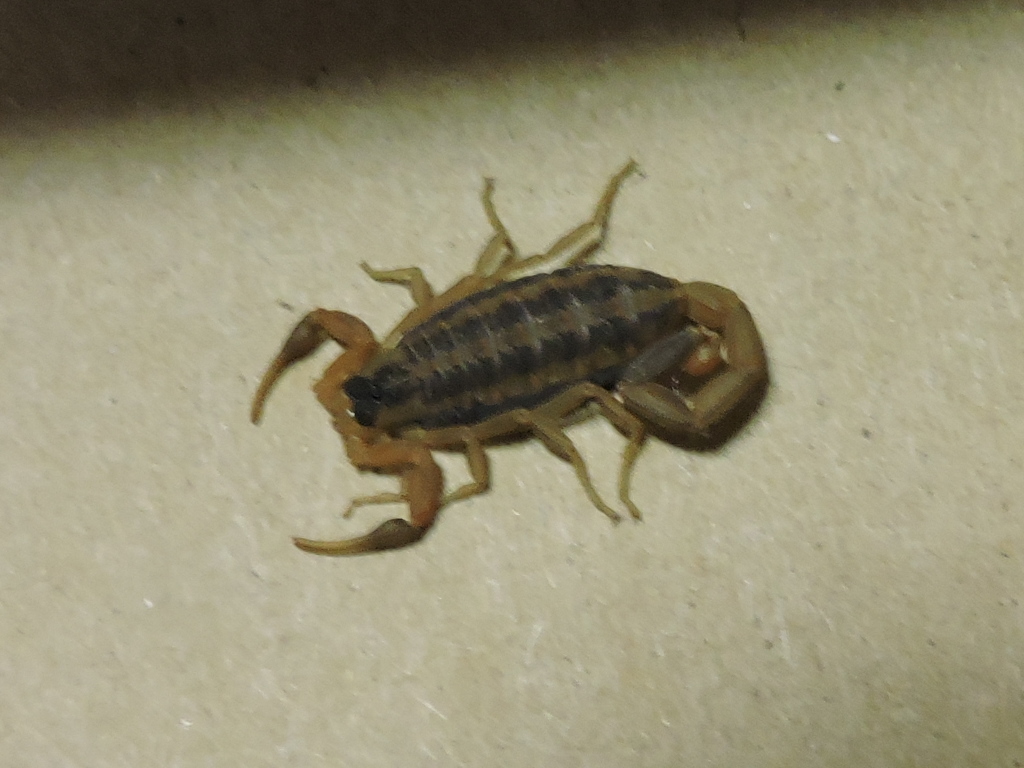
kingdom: Animalia
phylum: Arthropoda
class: Arachnida
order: Scorpiones
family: Buthidae
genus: Centruroides
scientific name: Centruroides vittatus
